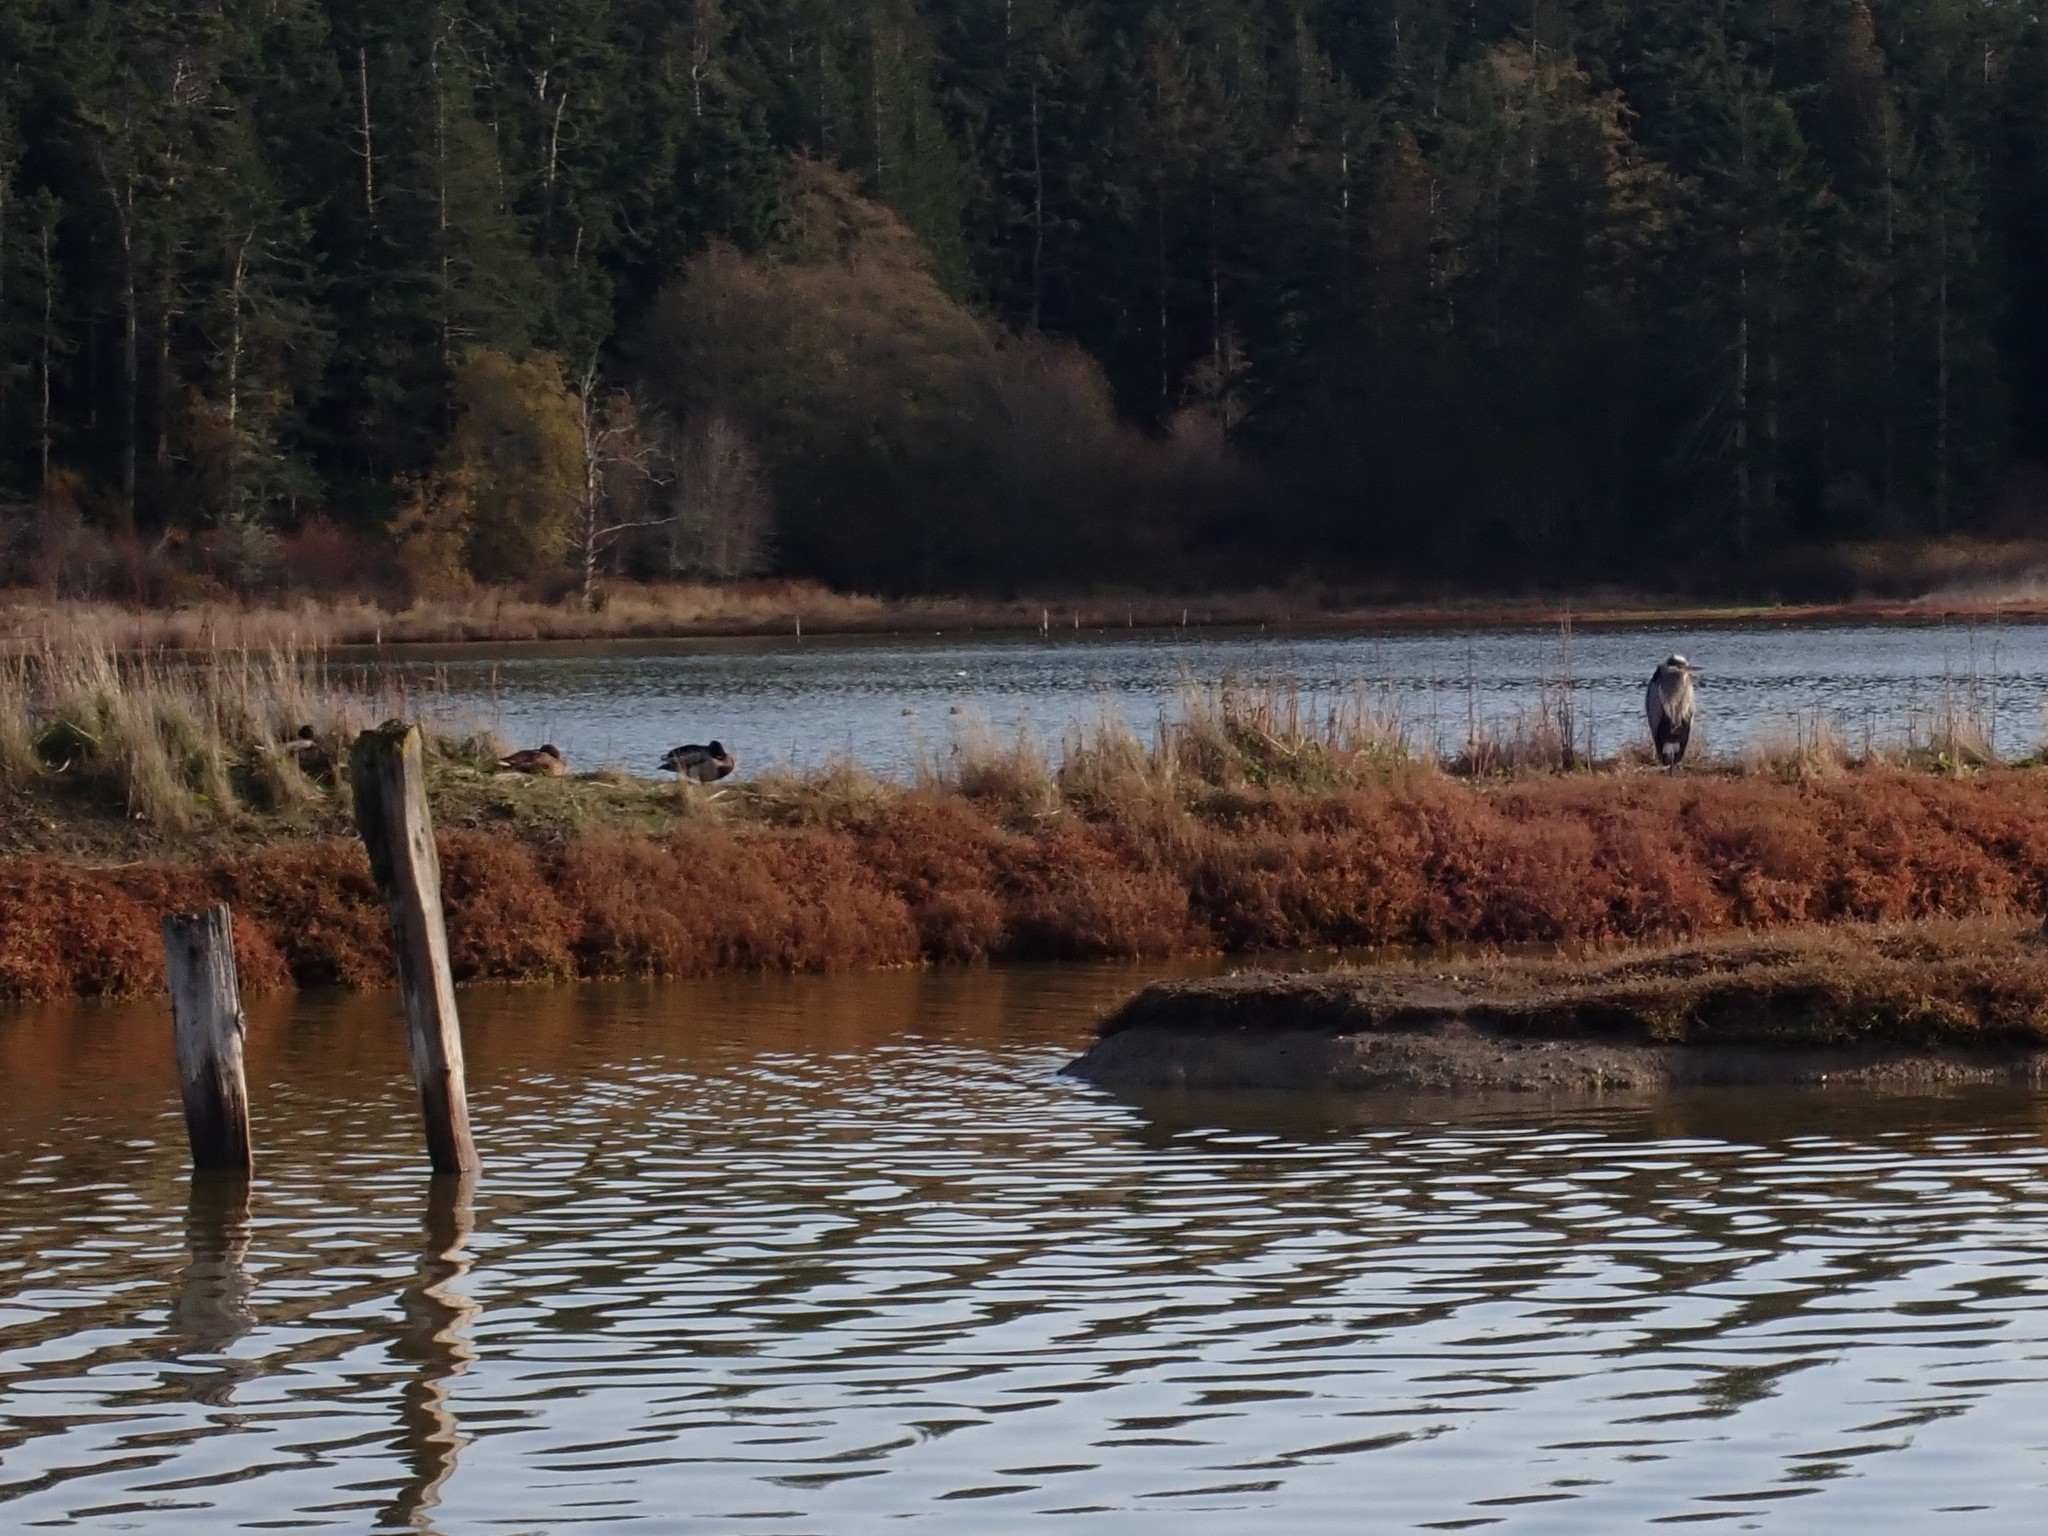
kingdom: Animalia
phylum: Chordata
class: Aves
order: Anseriformes
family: Anatidae
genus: Anas
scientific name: Anas platyrhynchos
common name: Mallard
